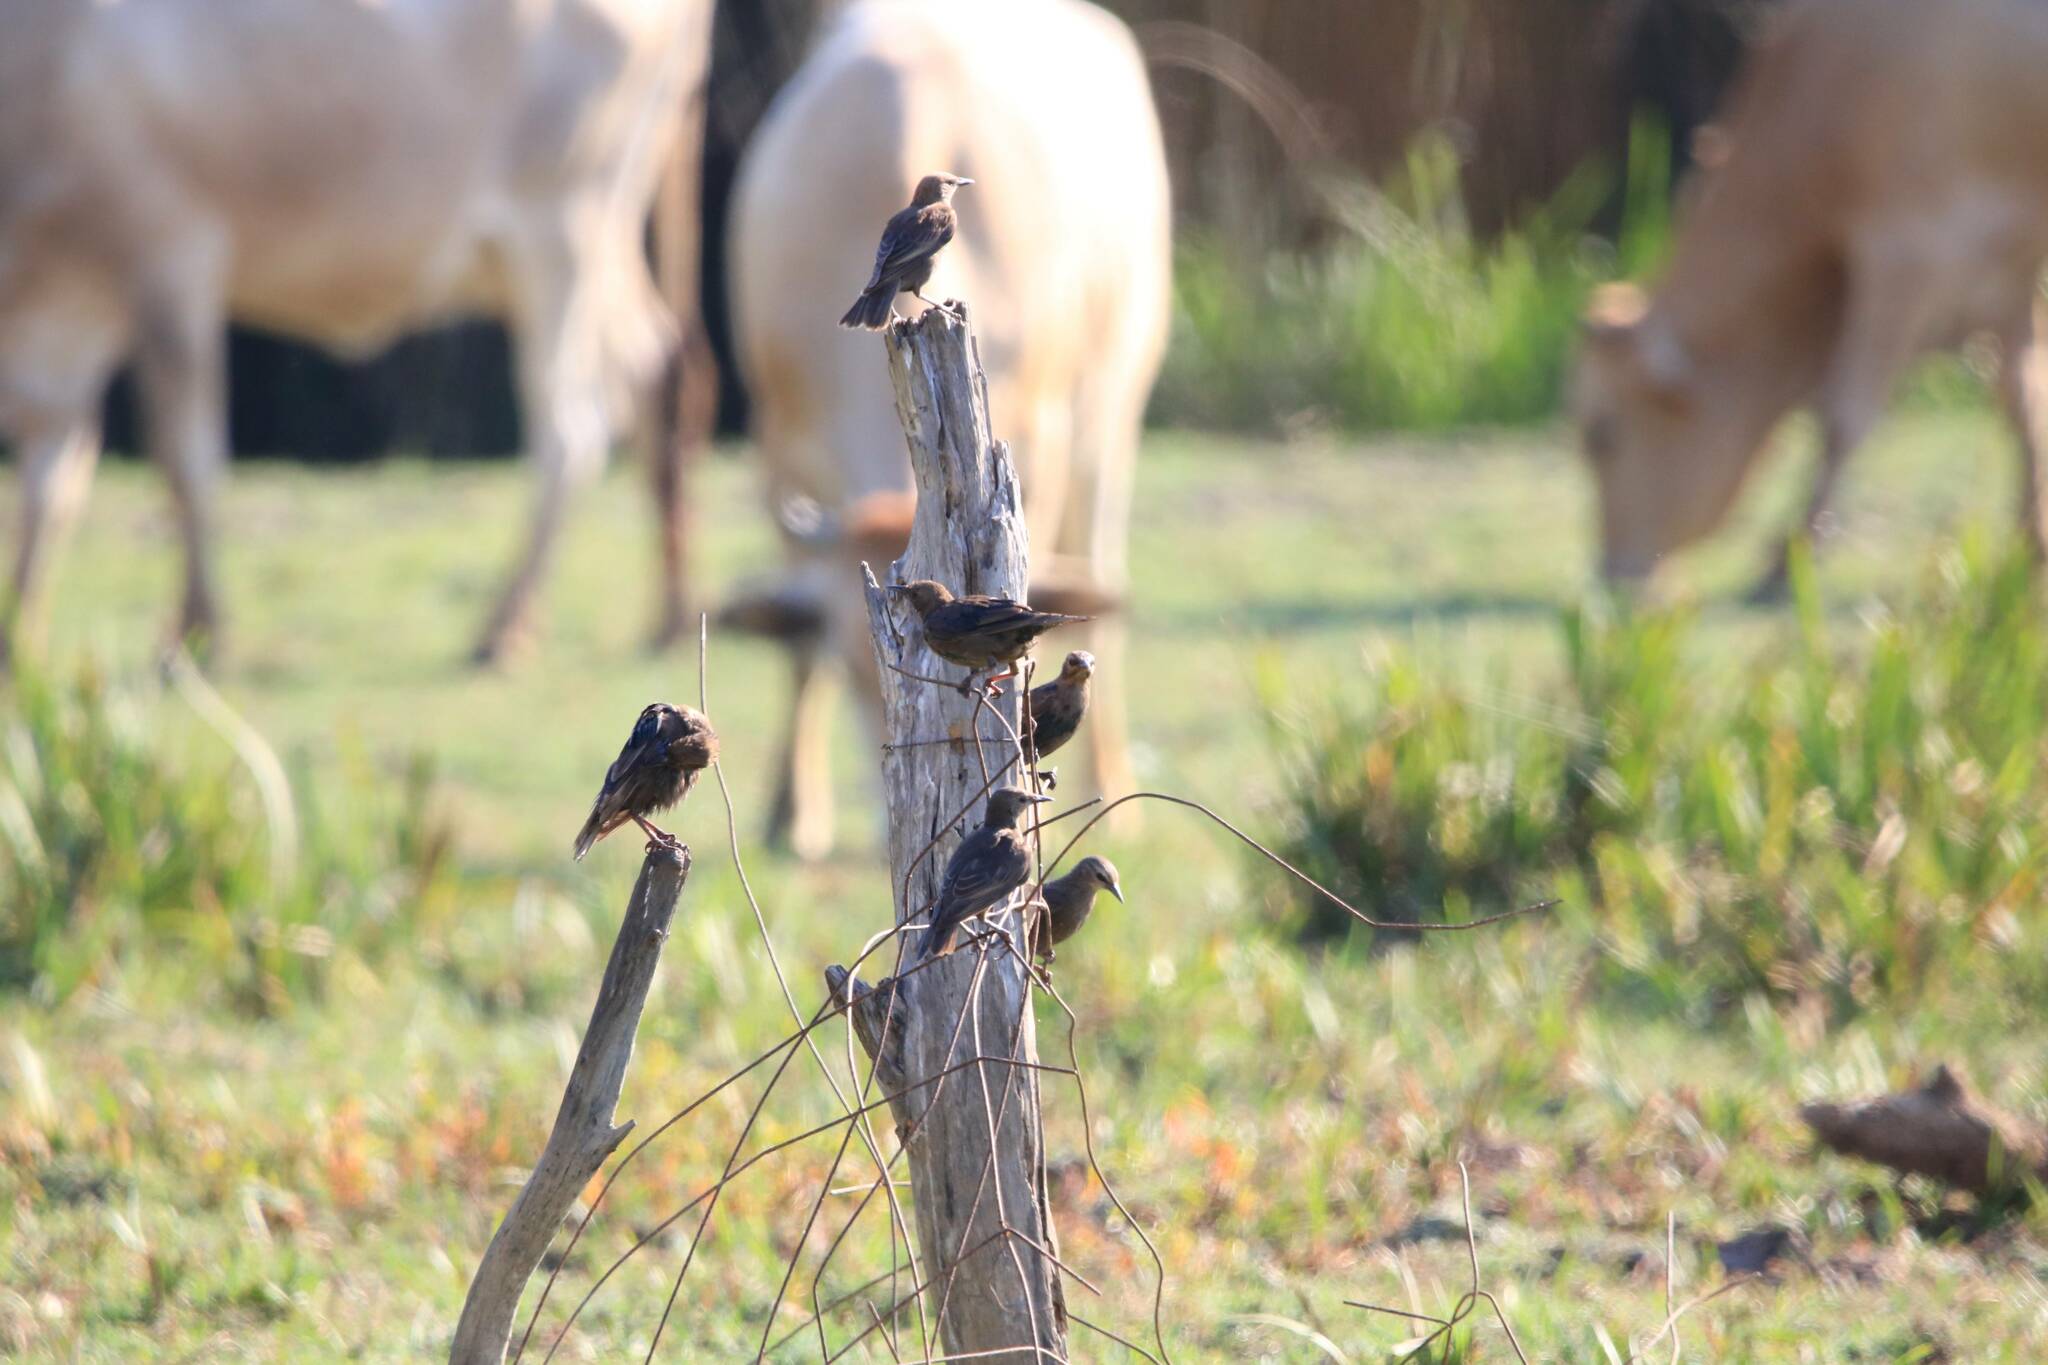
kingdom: Animalia
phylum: Chordata
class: Aves
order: Passeriformes
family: Sturnidae
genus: Sturnus
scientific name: Sturnus unicolor
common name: Spotless starling
